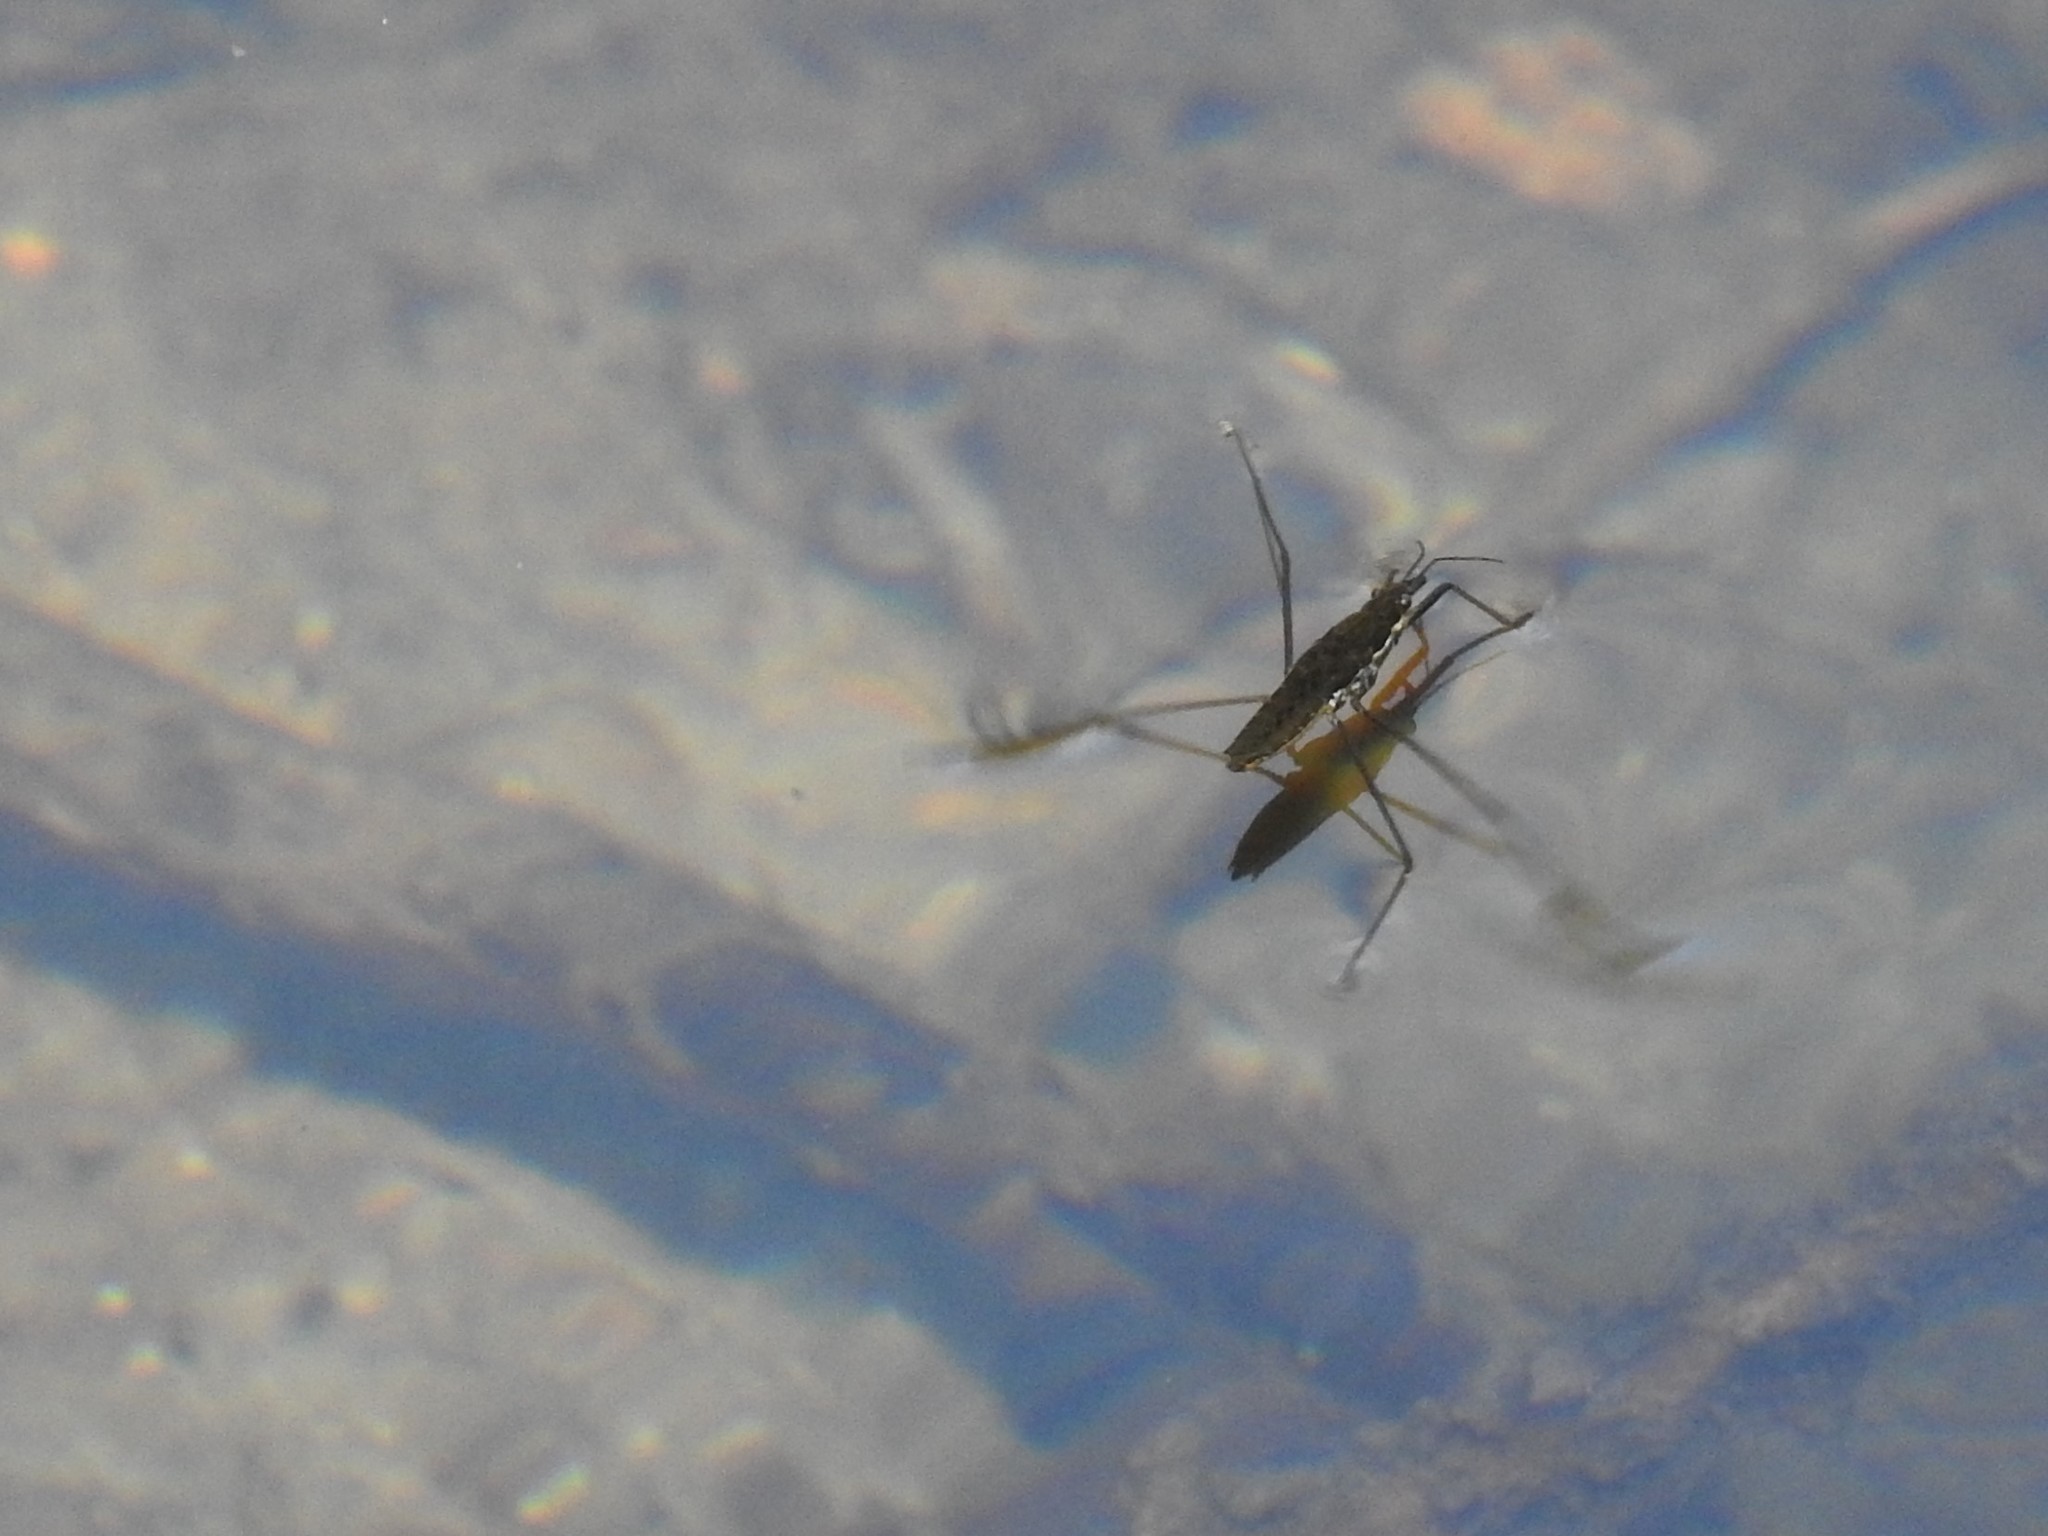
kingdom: Animalia
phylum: Arthropoda
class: Insecta
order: Hemiptera
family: Gerridae
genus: Aquarius
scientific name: Aquarius remigis
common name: Common water strider
